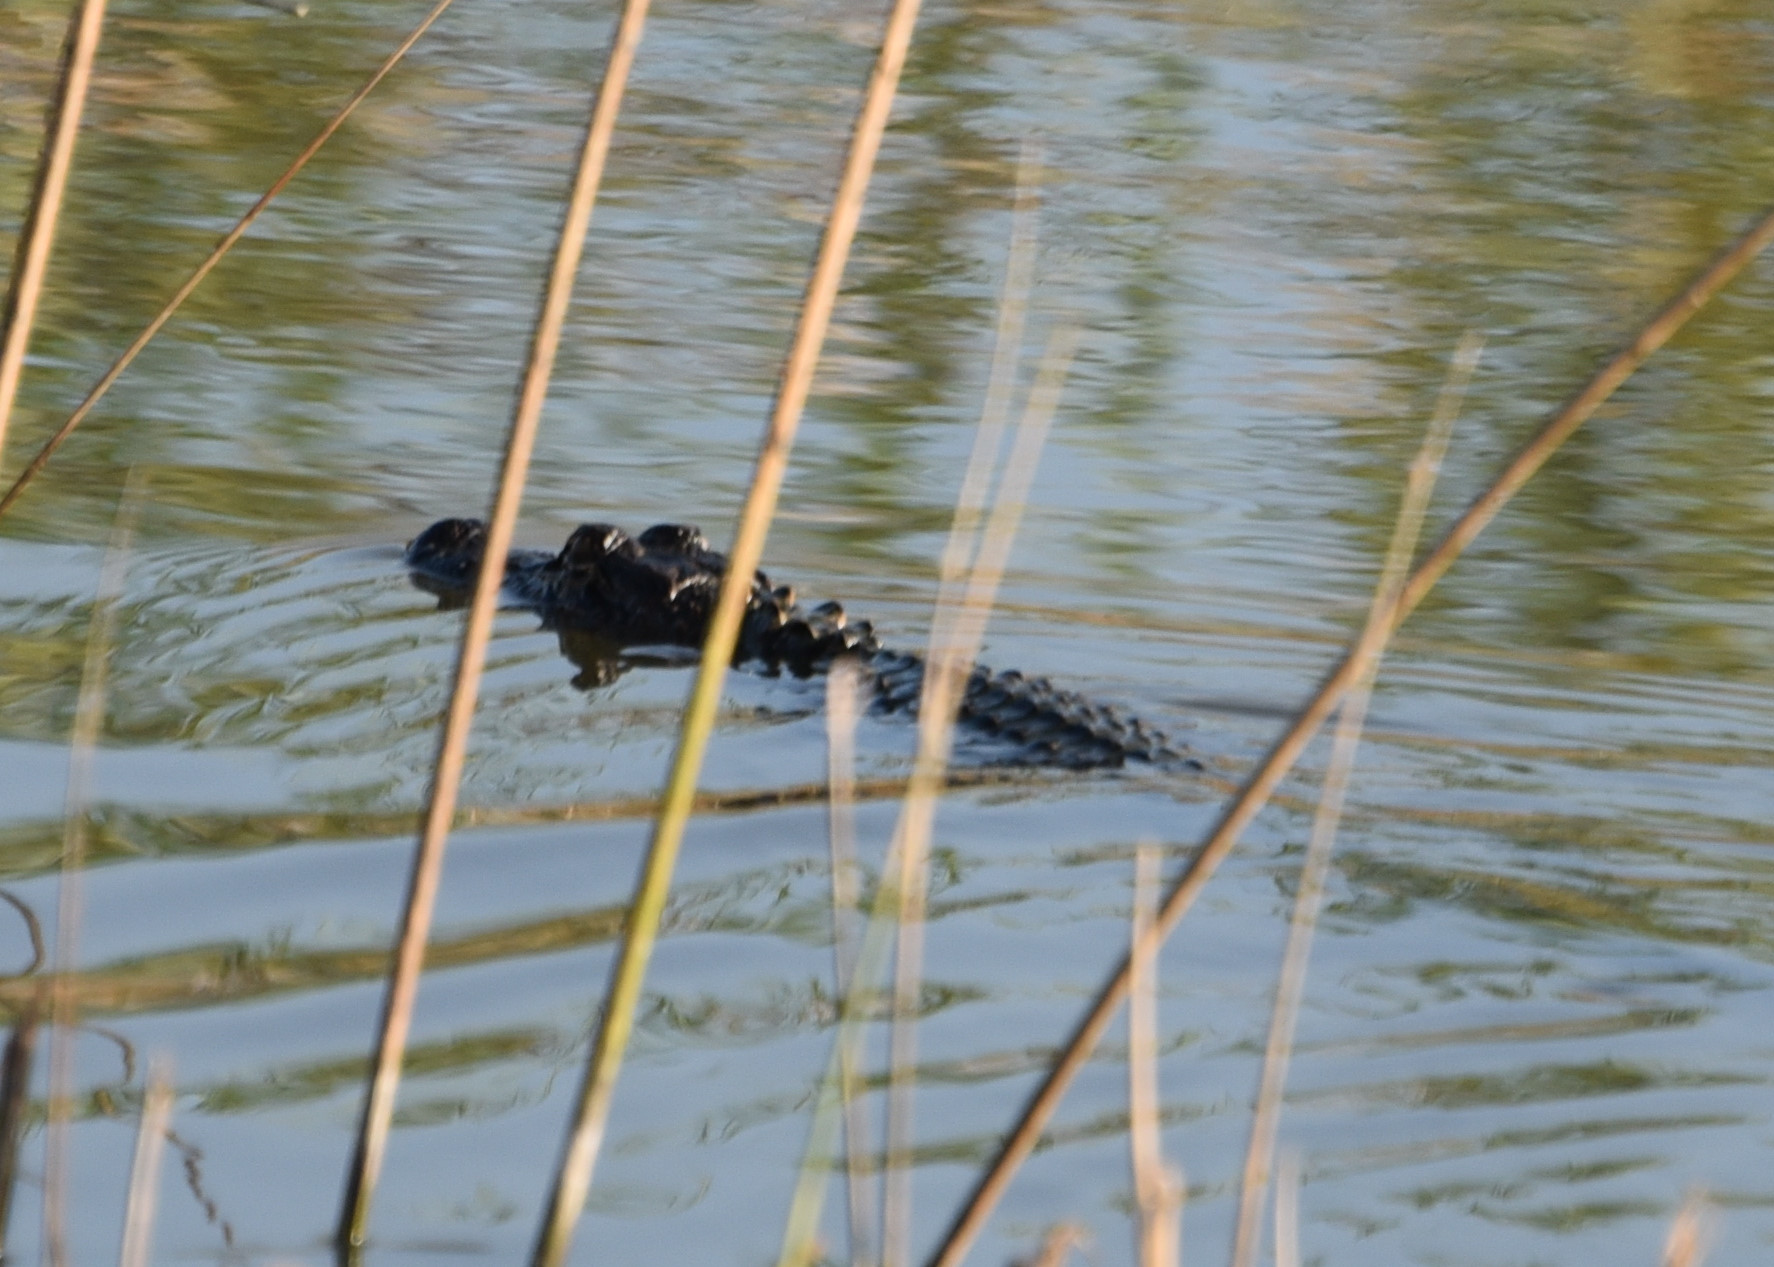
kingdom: Animalia
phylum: Chordata
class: Crocodylia
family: Alligatoridae
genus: Alligator
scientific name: Alligator mississippiensis
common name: American alligator
